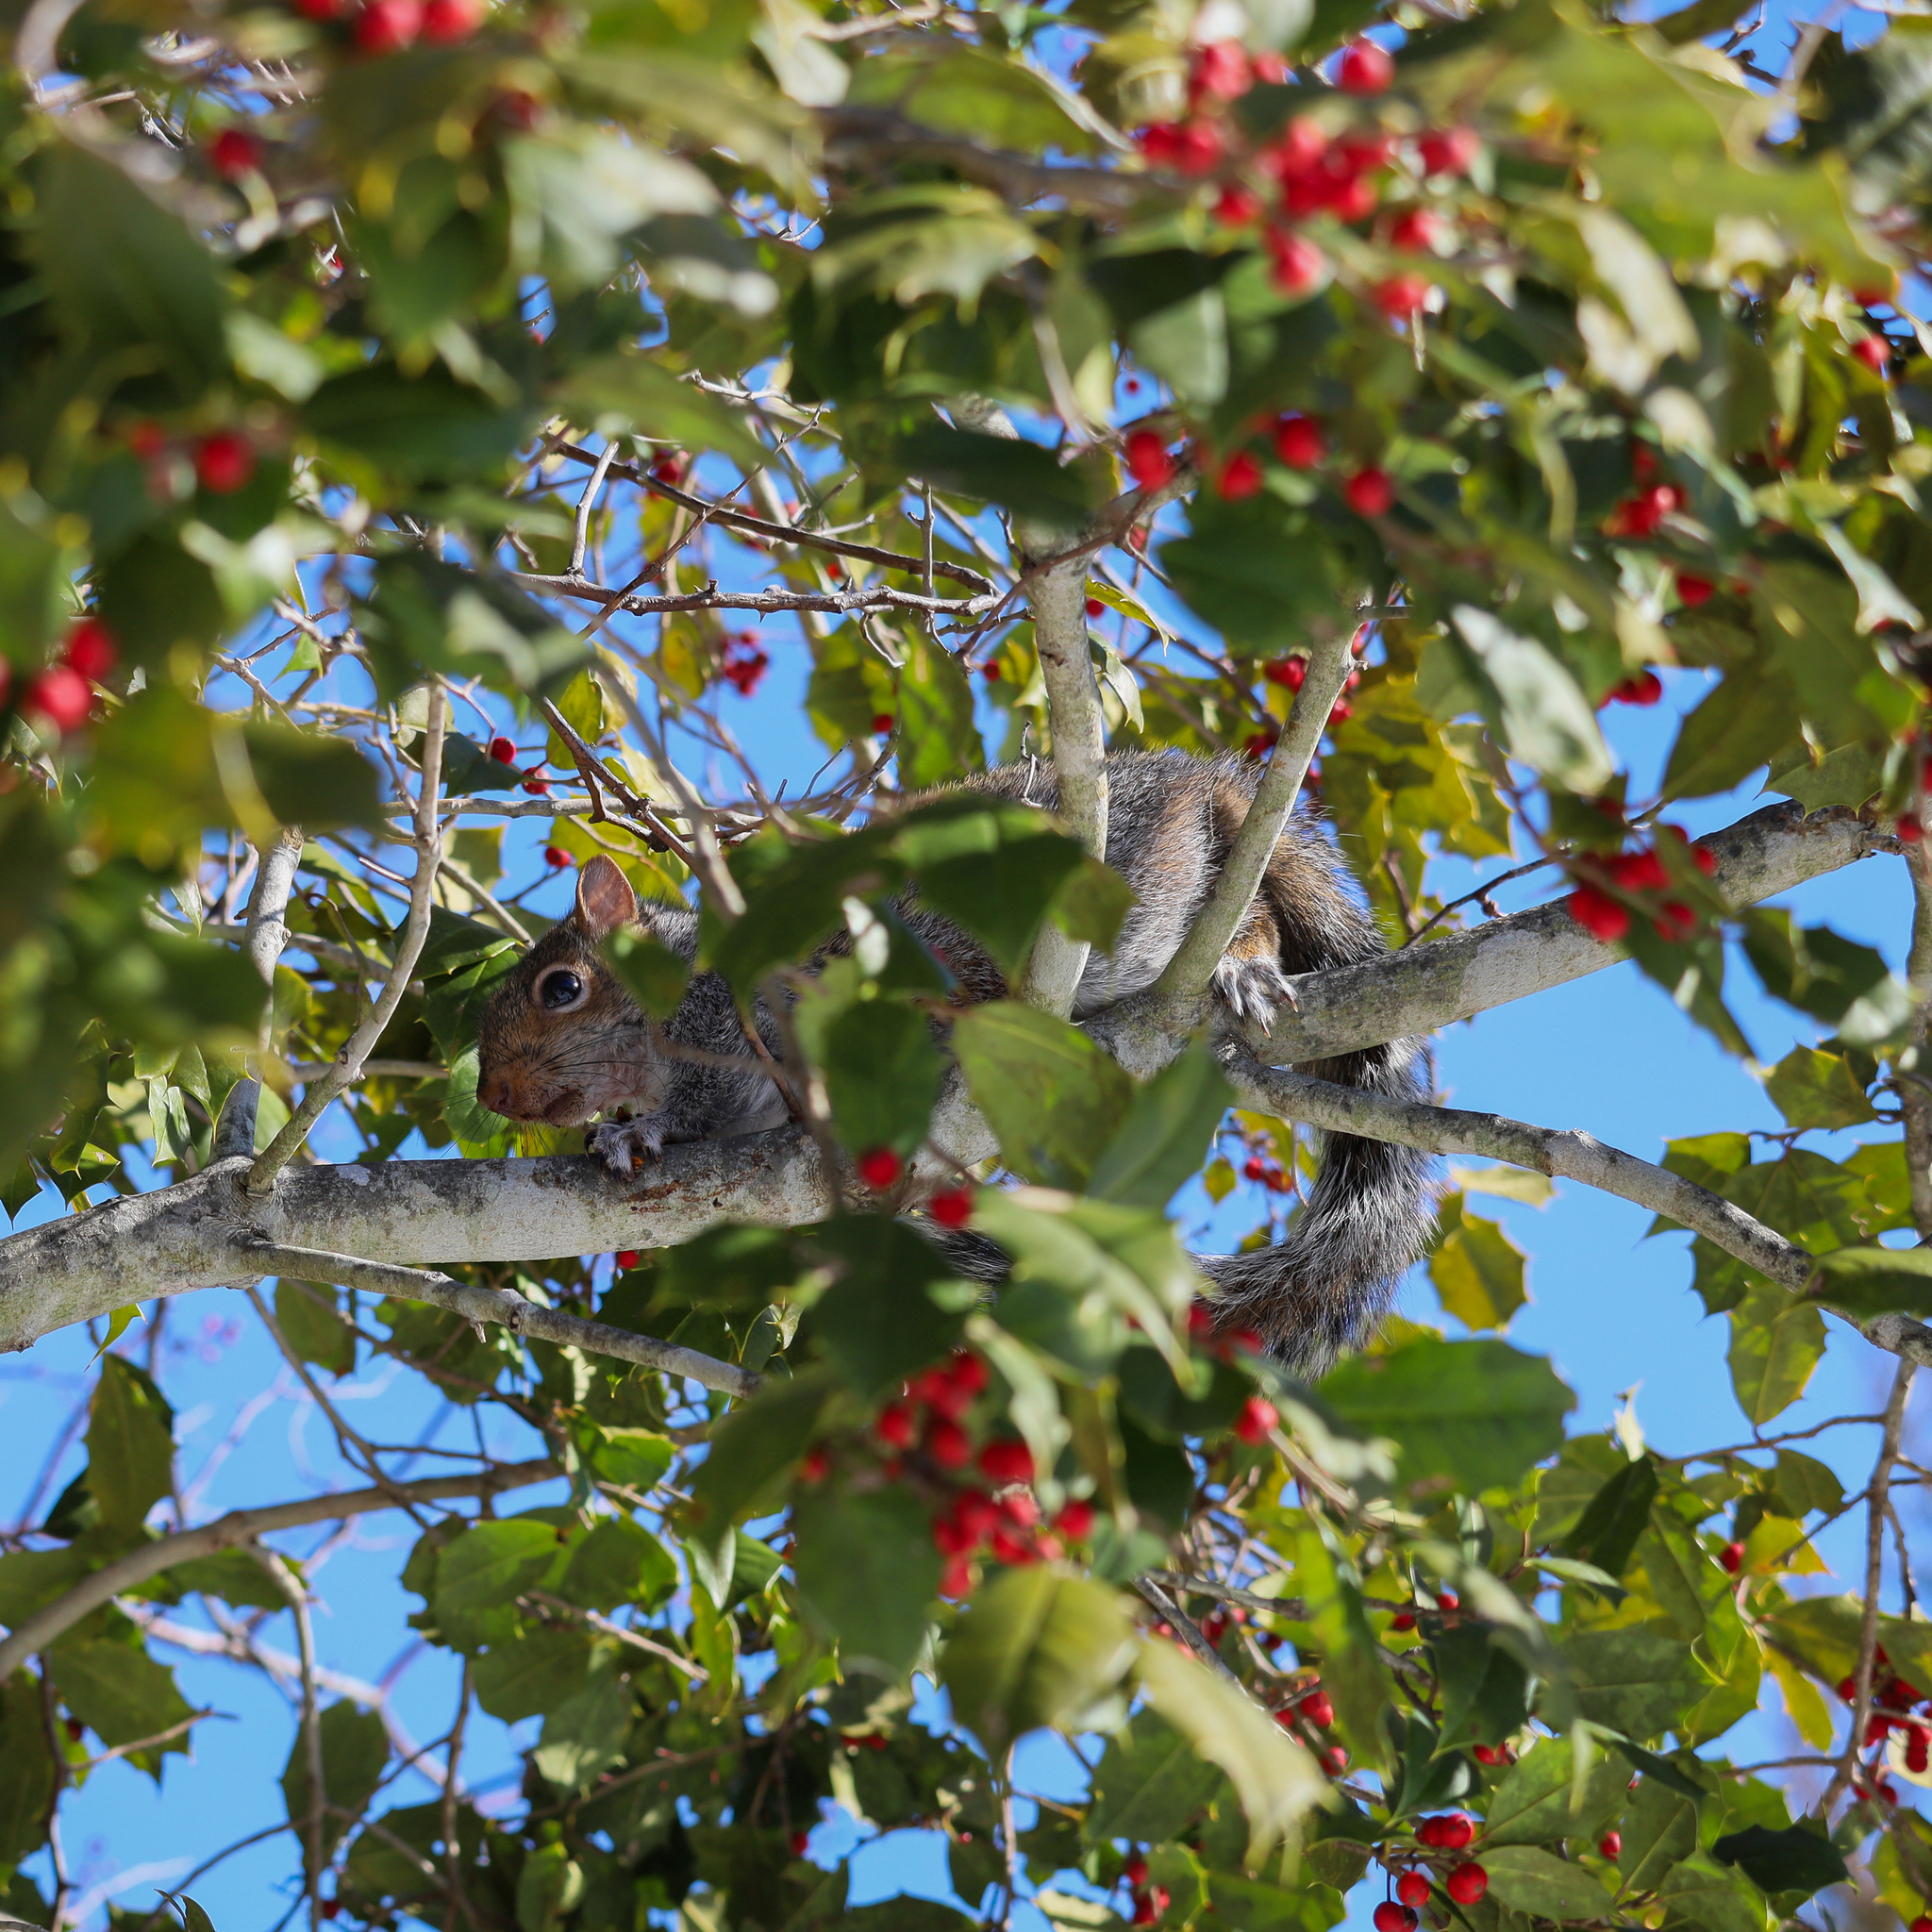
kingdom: Animalia
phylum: Chordata
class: Mammalia
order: Rodentia
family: Sciuridae
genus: Sciurus
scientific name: Sciurus carolinensis
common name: Eastern gray squirrel
